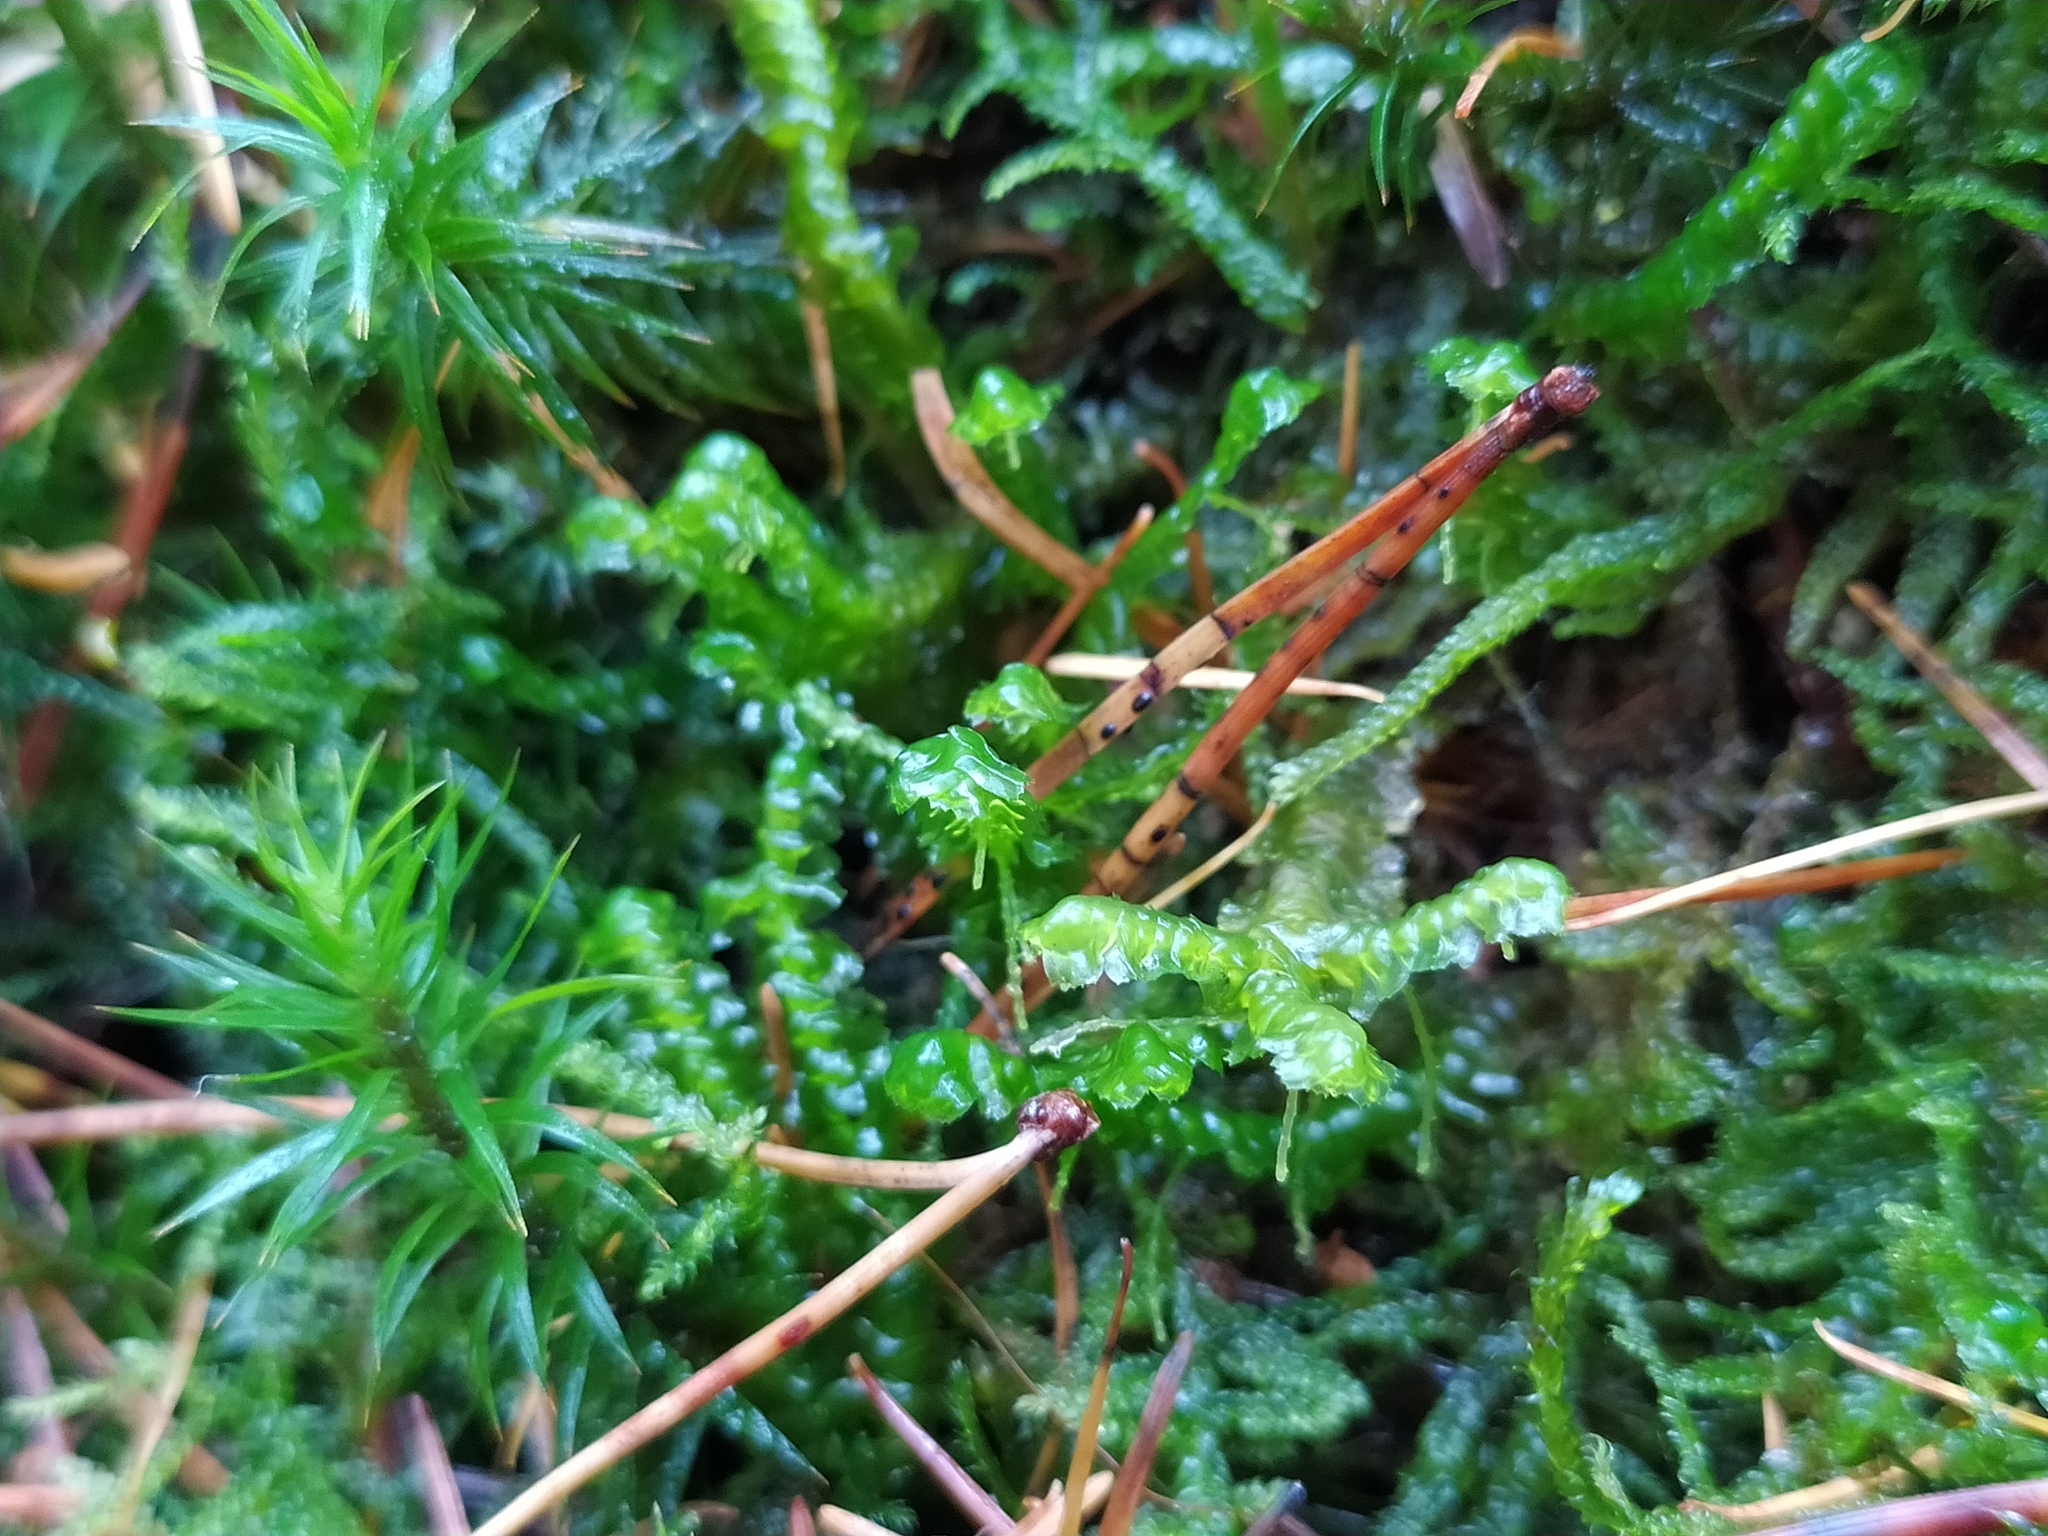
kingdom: Plantae
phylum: Marchantiophyta
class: Jungermanniopsida
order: Jungermanniales
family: Lepidoziaceae
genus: Bazzania
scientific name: Bazzania trilobata
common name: Three-lobed whipwort
